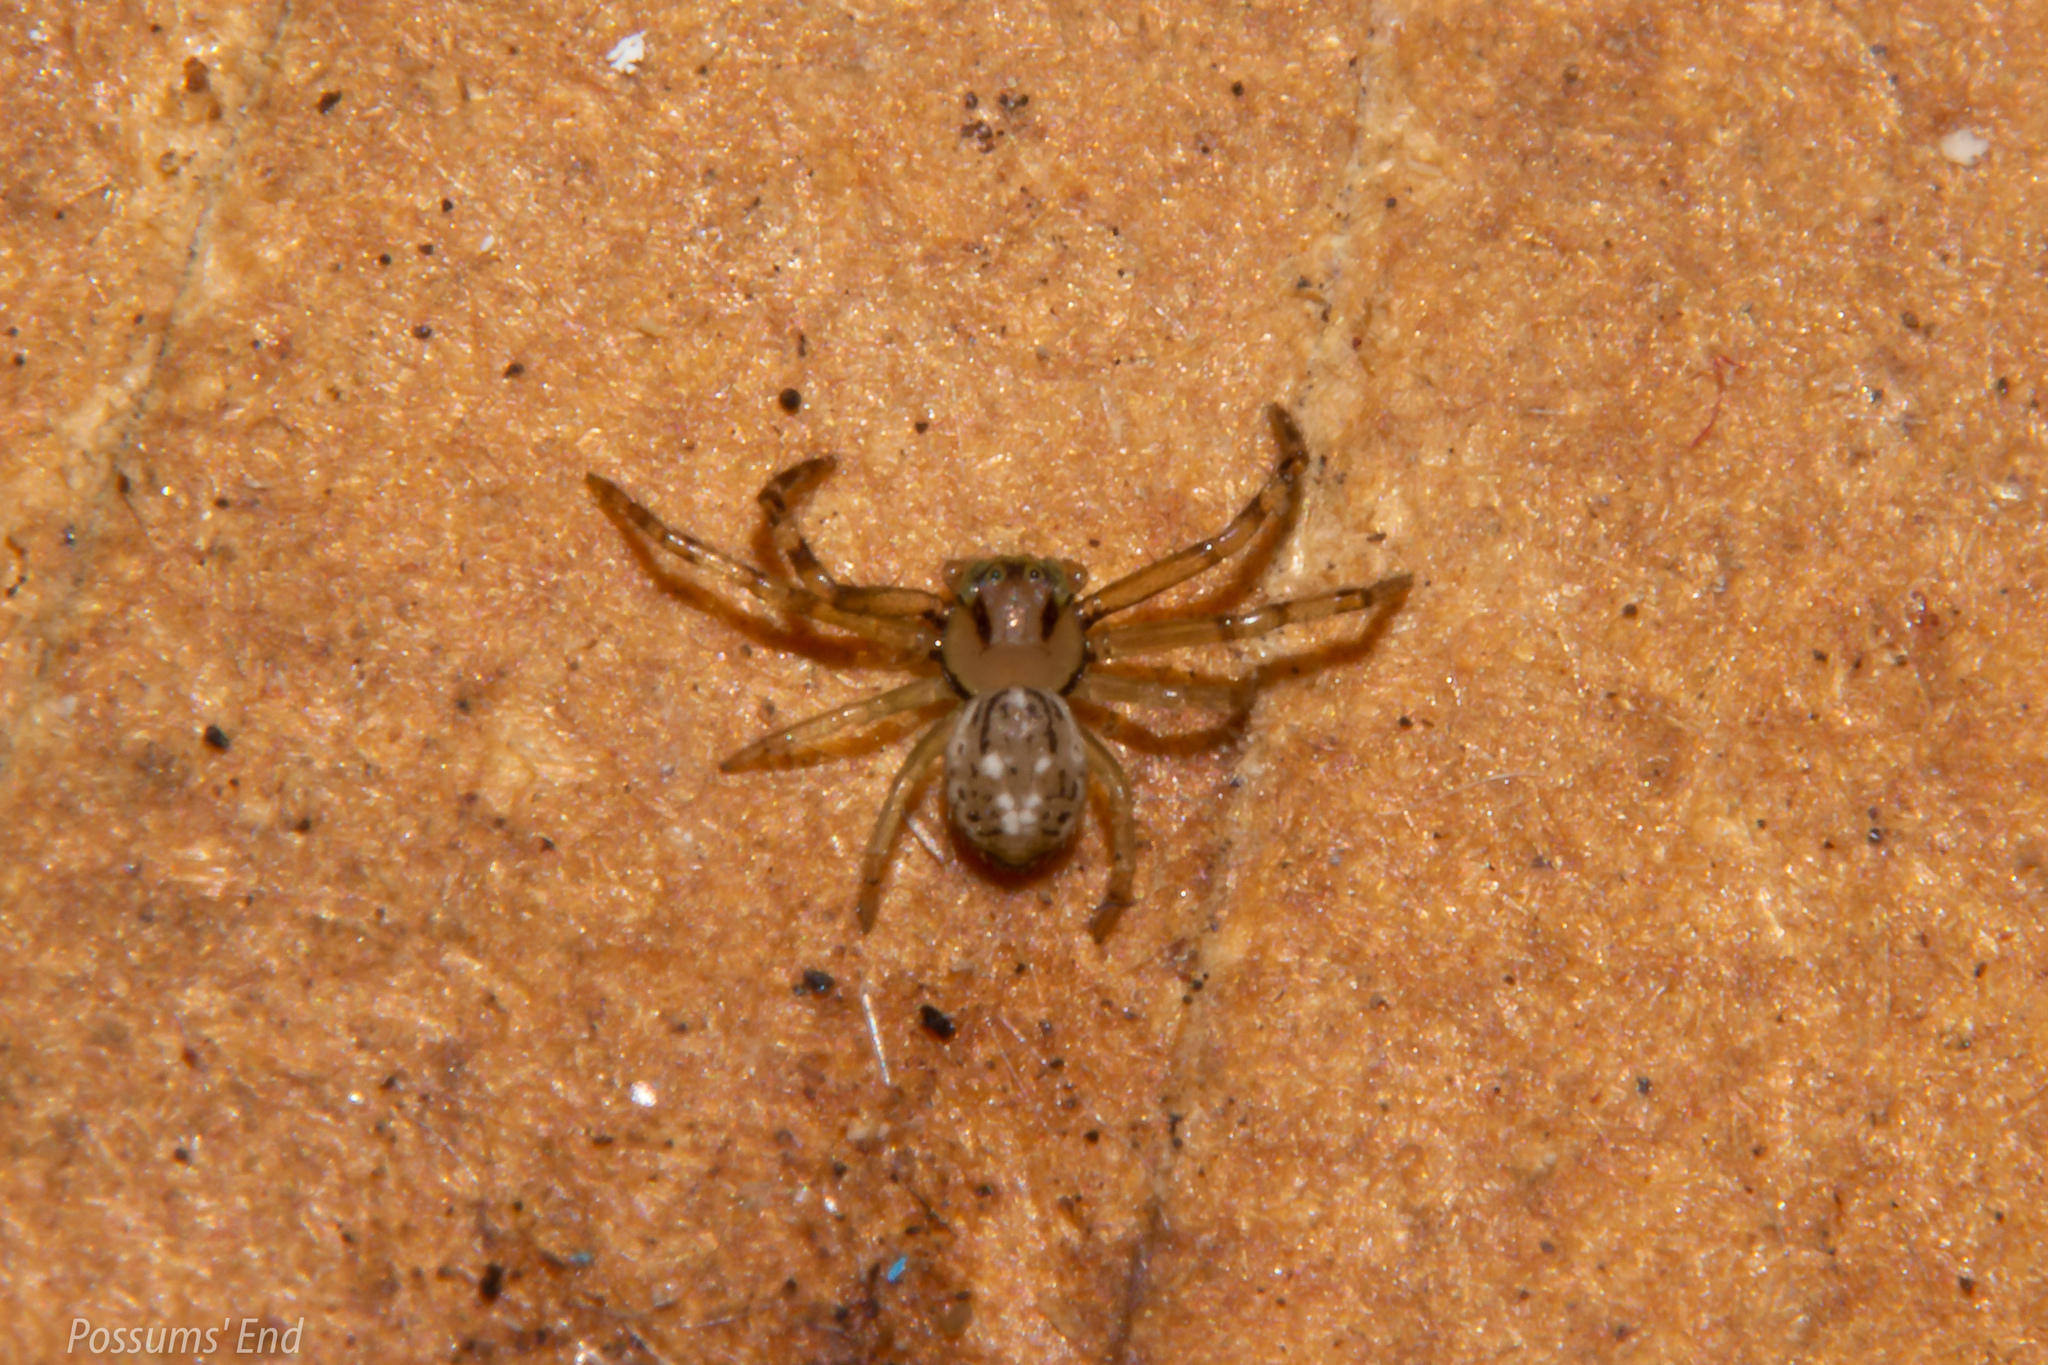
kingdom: Animalia
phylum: Arthropoda
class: Arachnida
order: Araneae
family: Thomisidae
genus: Diaea
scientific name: Diaea ambara
